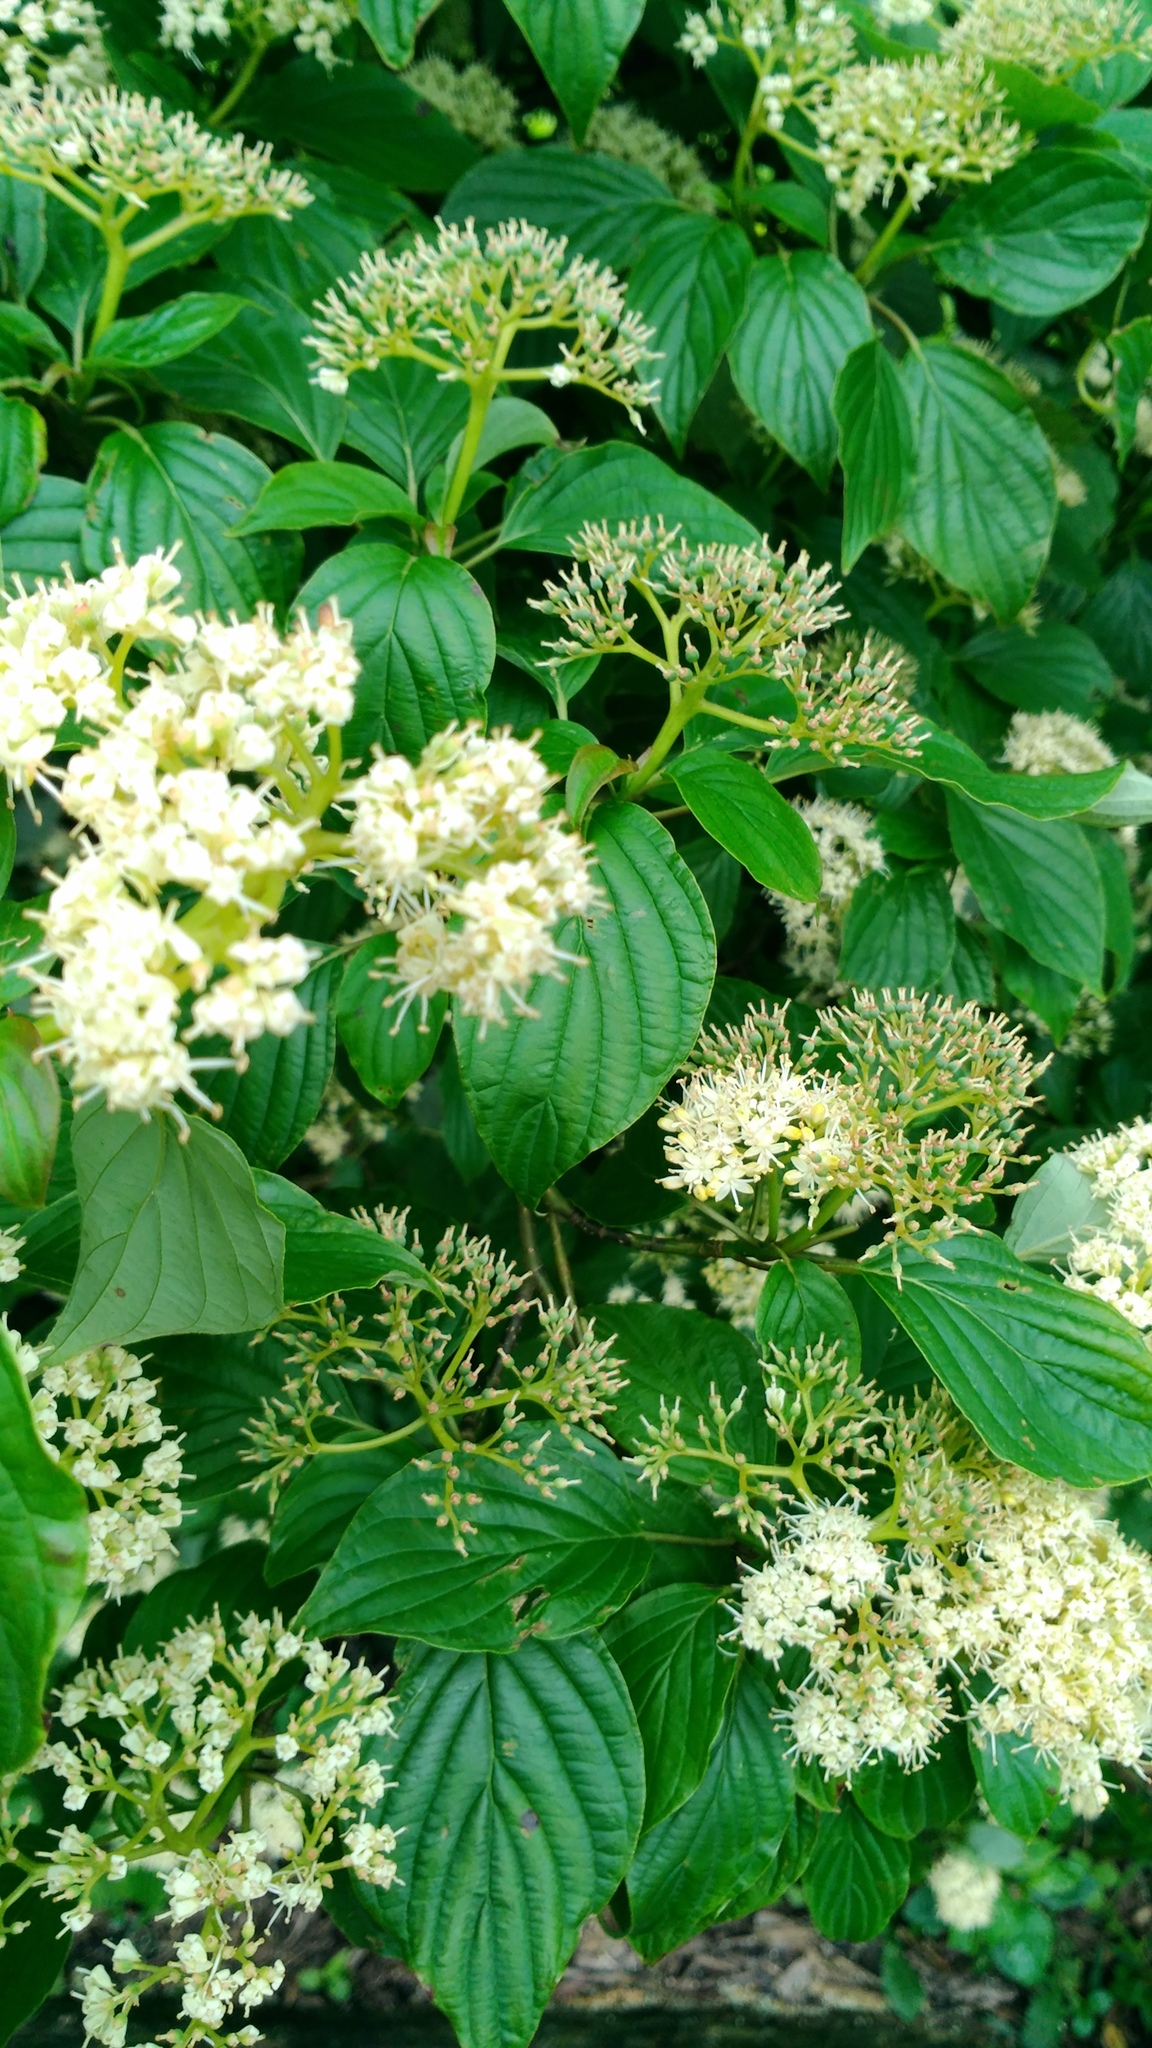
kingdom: Plantae
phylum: Tracheophyta
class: Magnoliopsida
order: Cornales
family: Cornaceae
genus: Cornus
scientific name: Cornus alternifolia
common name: Pagoda dogwood
